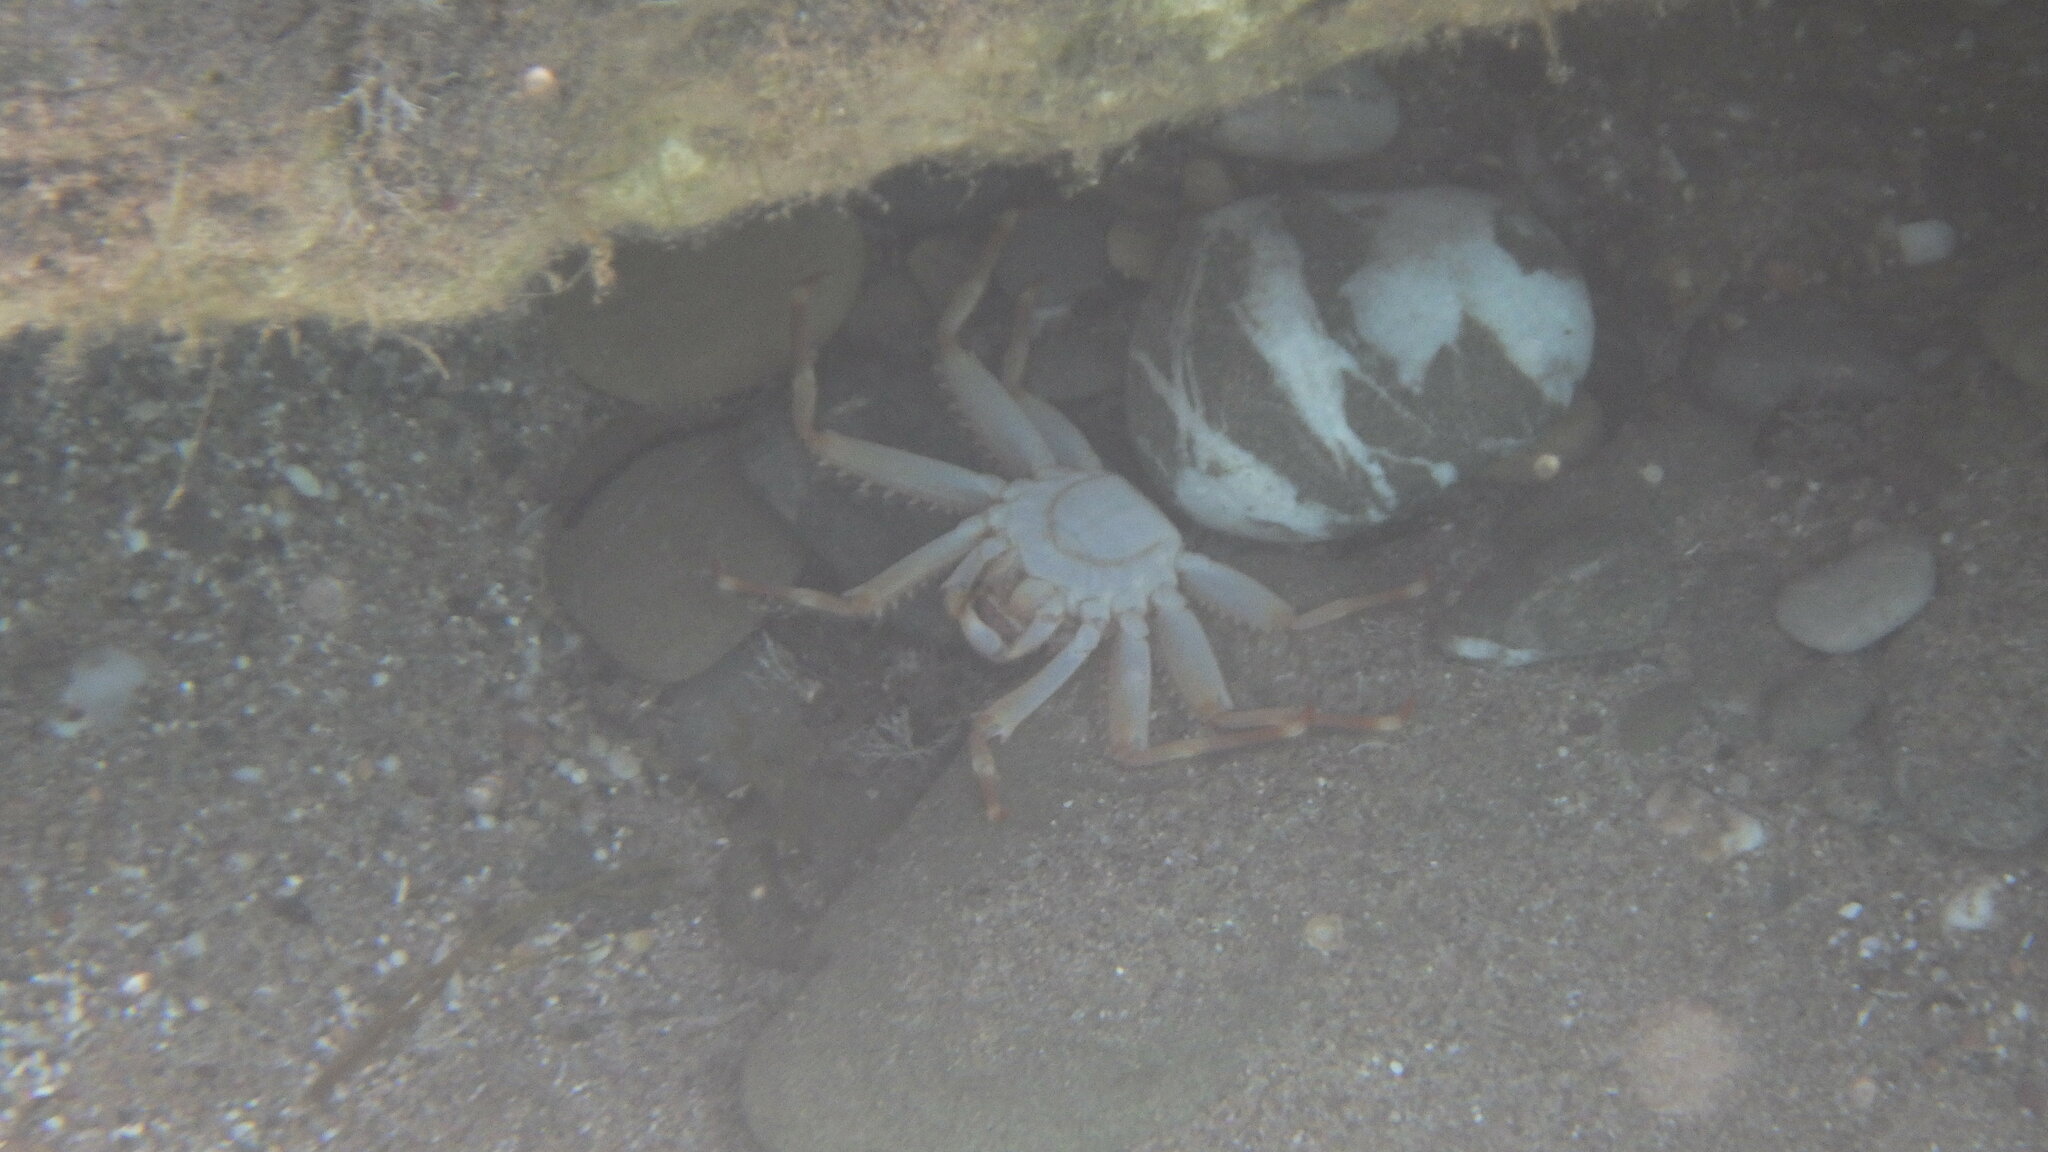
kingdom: Animalia
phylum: Arthropoda
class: Malacostraca
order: Decapoda
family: Percnidae
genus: Percnon
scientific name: Percnon gibbesi
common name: Nimble spray crab
